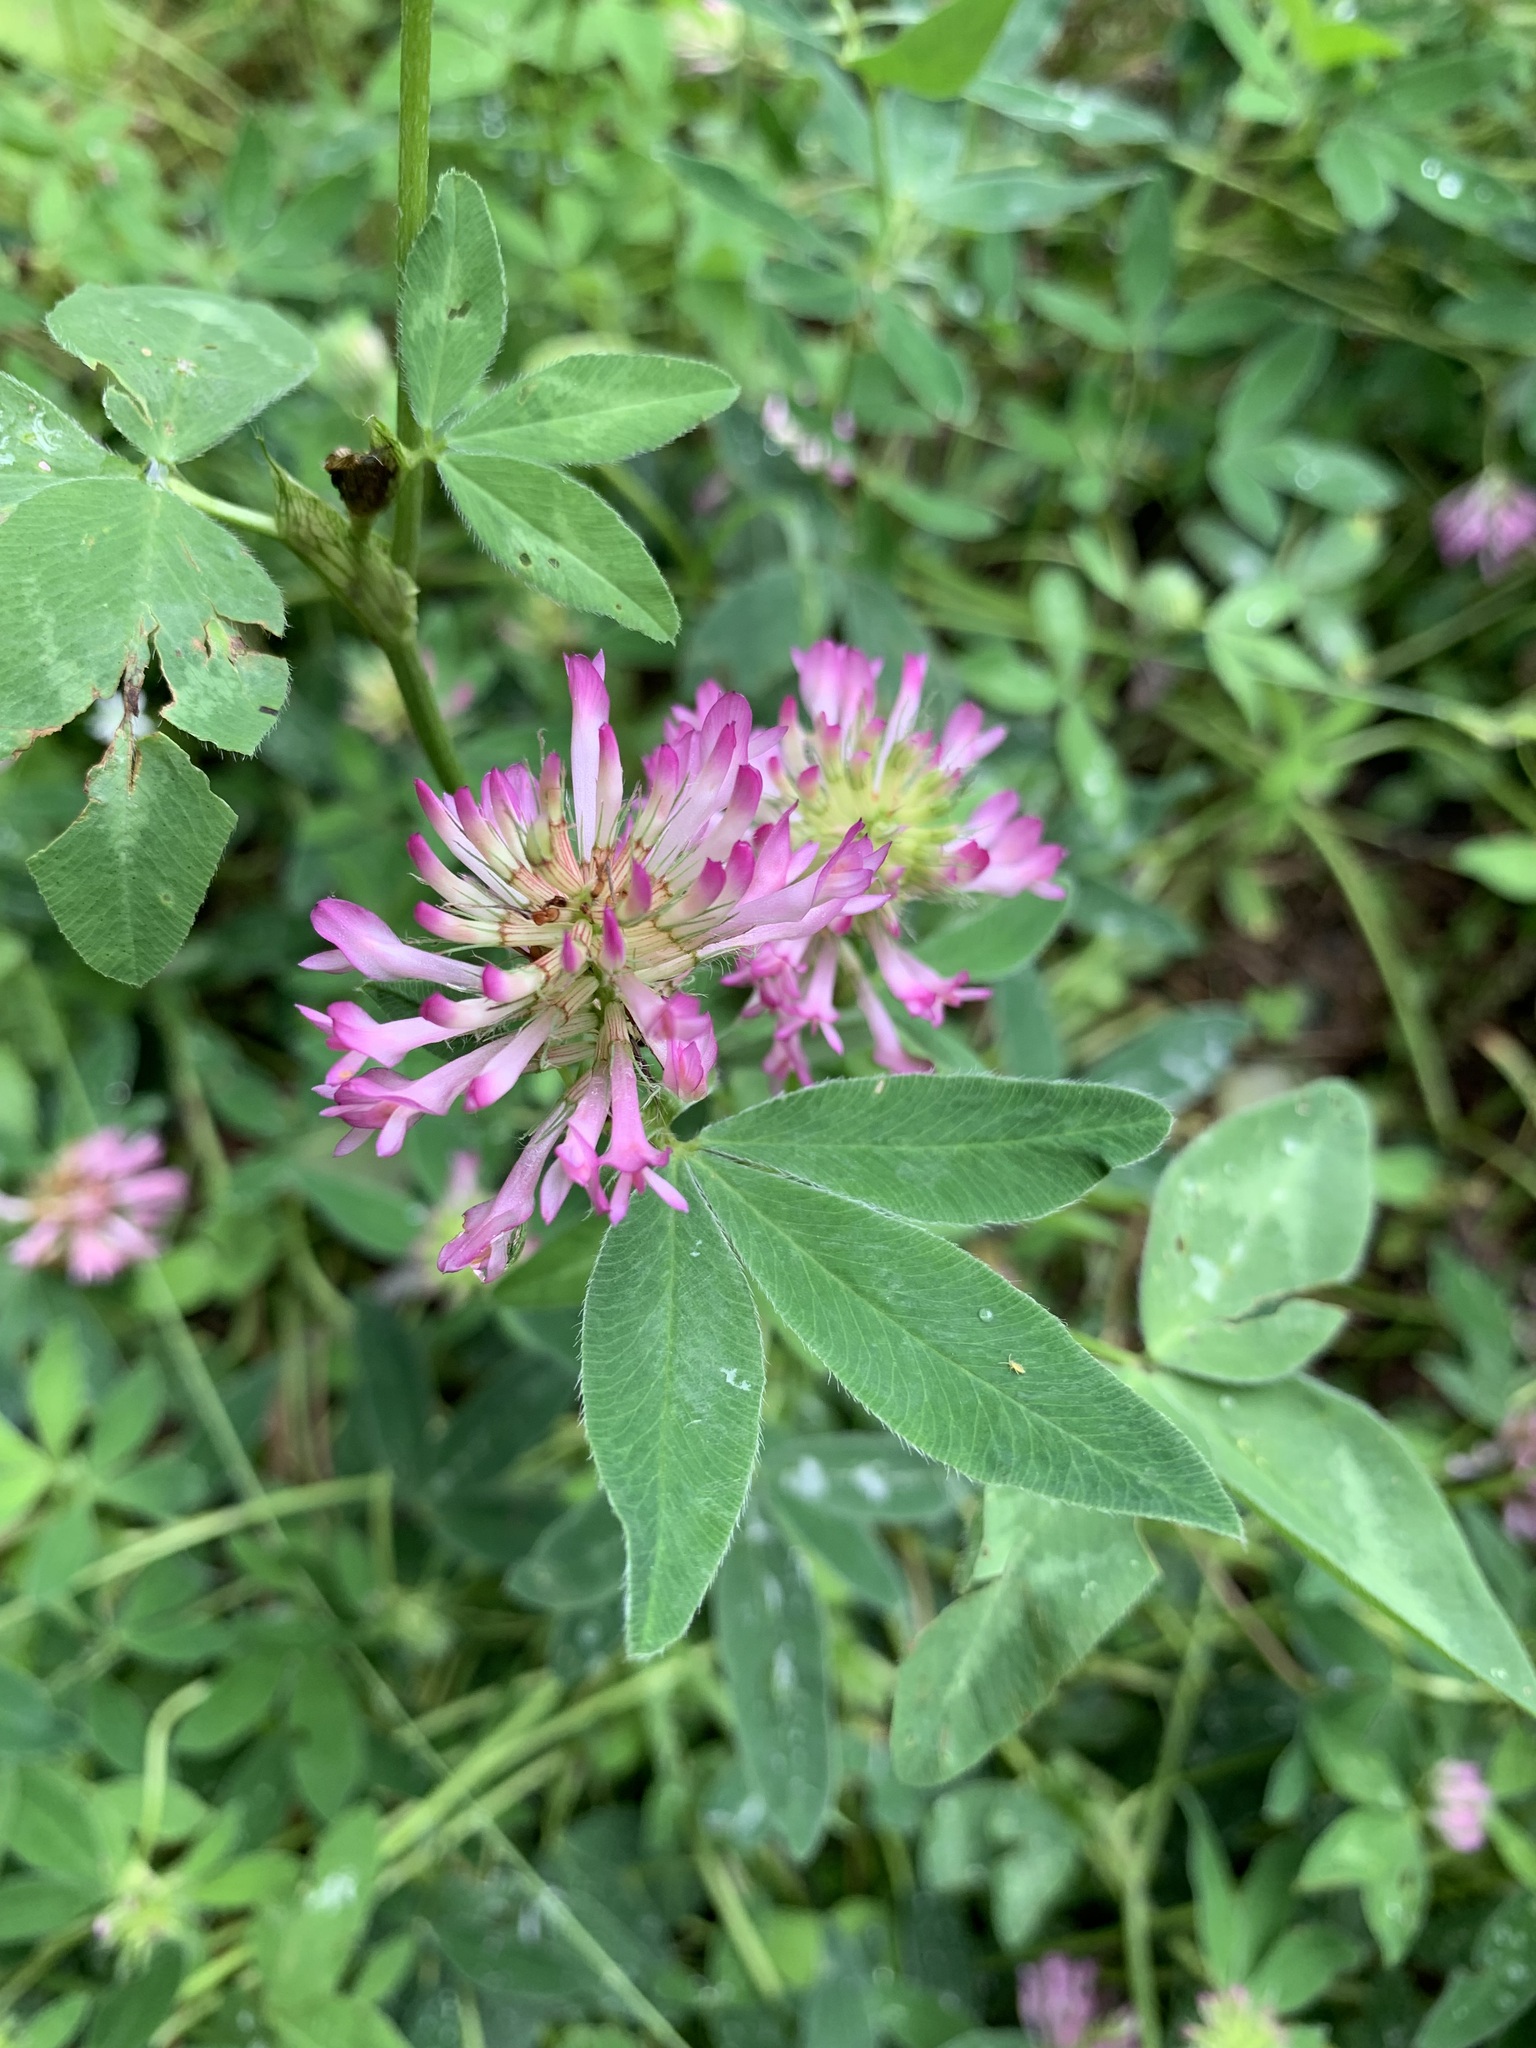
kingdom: Plantae
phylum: Tracheophyta
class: Magnoliopsida
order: Fabales
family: Fabaceae
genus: Trifolium
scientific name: Trifolium medium
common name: Zigzag clover
